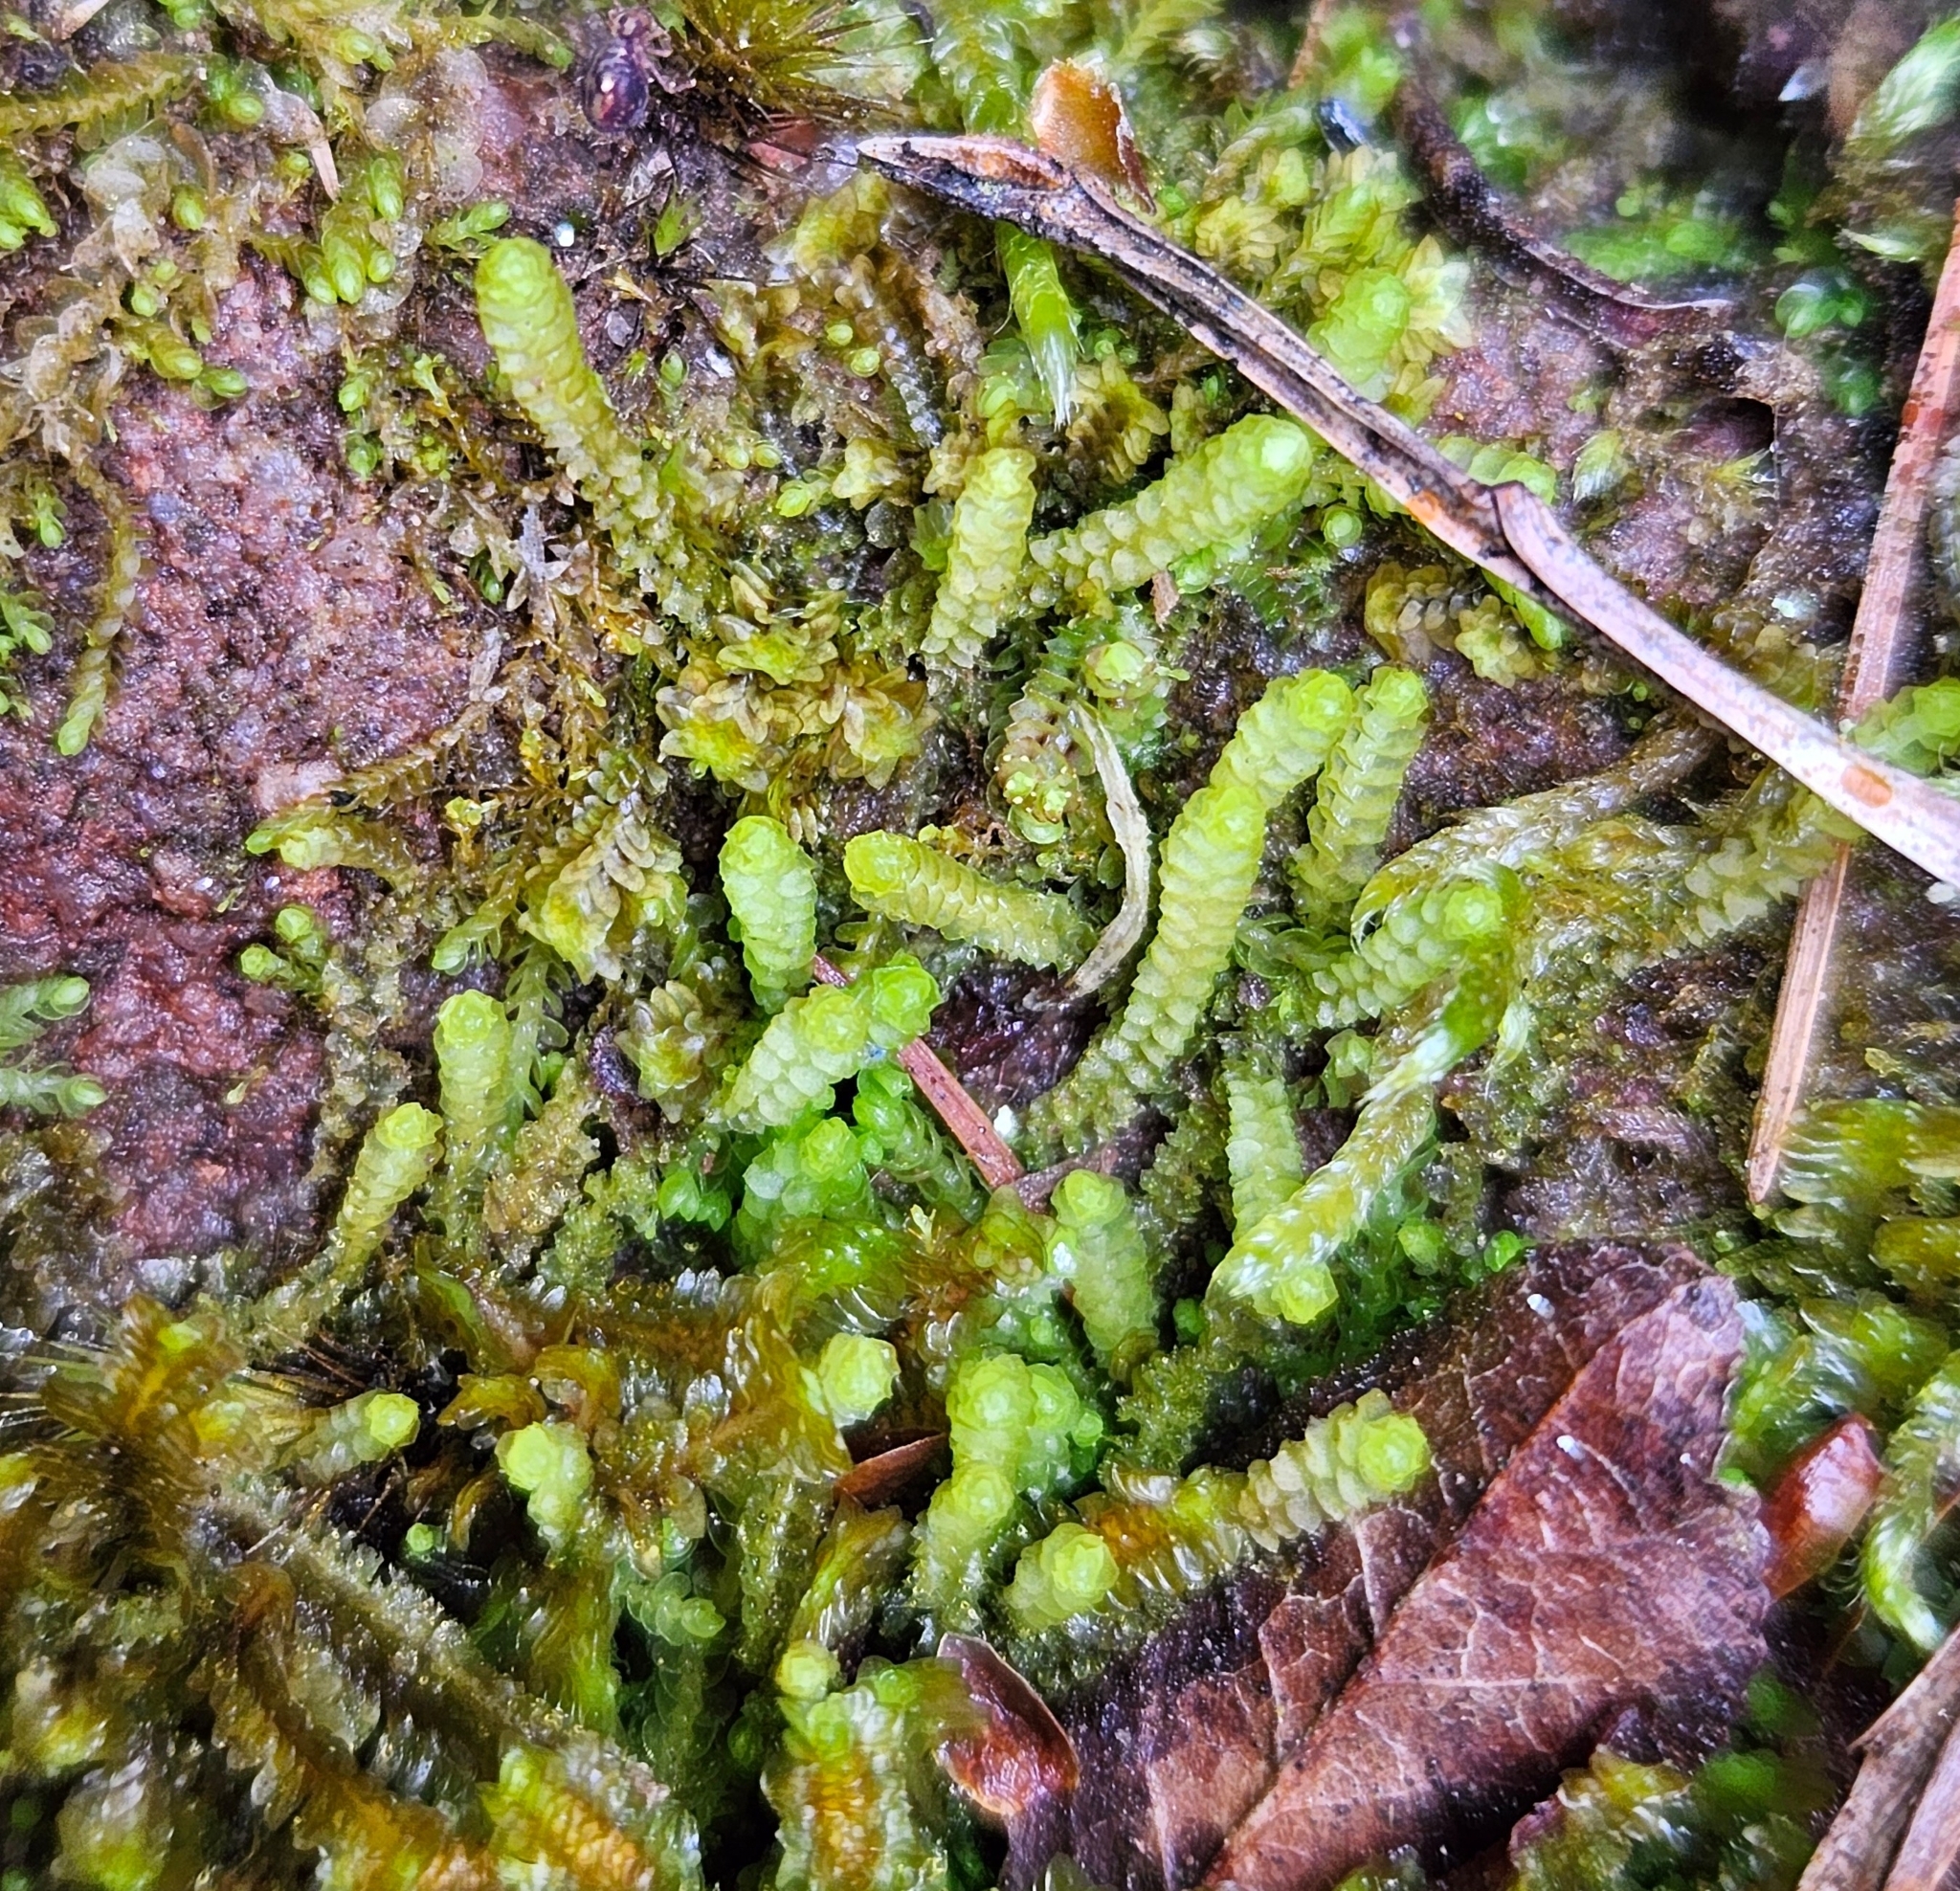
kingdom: Plantae
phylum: Marchantiophyta
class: Jungermanniopsida
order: Jungermanniales
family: Anastrophyllaceae
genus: Neoorthocaulis
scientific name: Neoorthocaulis floerkei
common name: Floerke's barbilophozia
